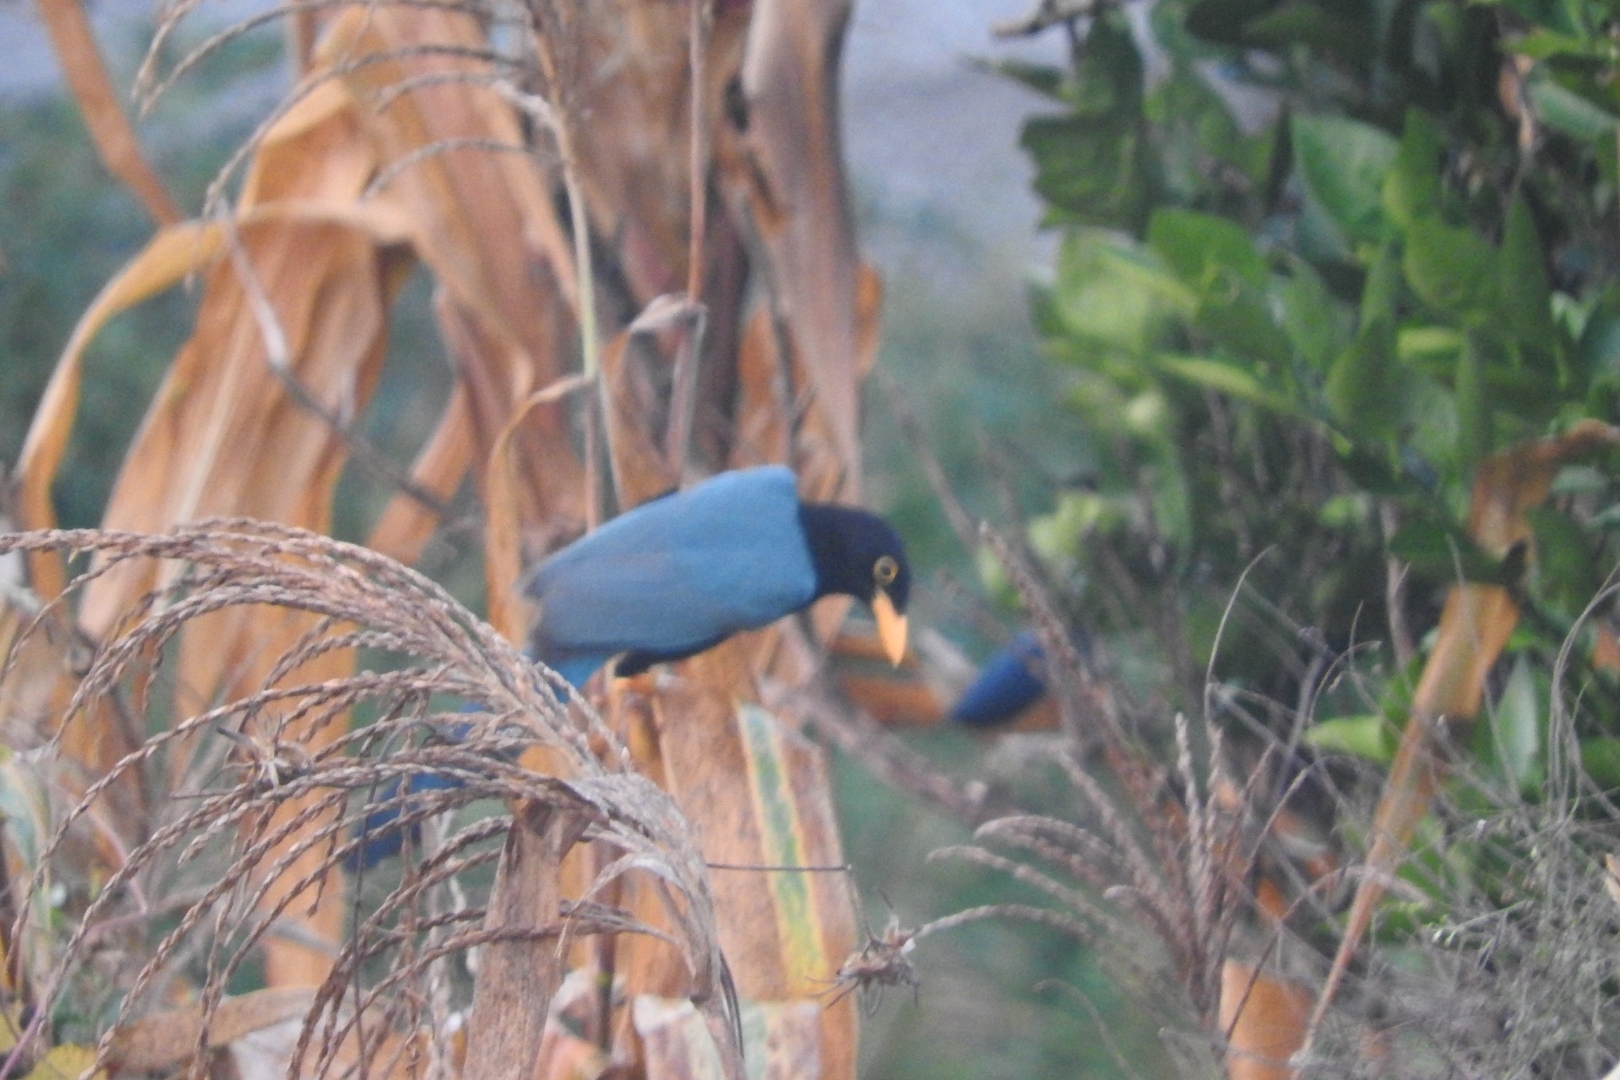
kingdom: Animalia
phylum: Chordata
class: Aves
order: Passeriformes
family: Corvidae
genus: Cyanocorax
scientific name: Cyanocorax yucatanicus
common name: Yucatan jay
